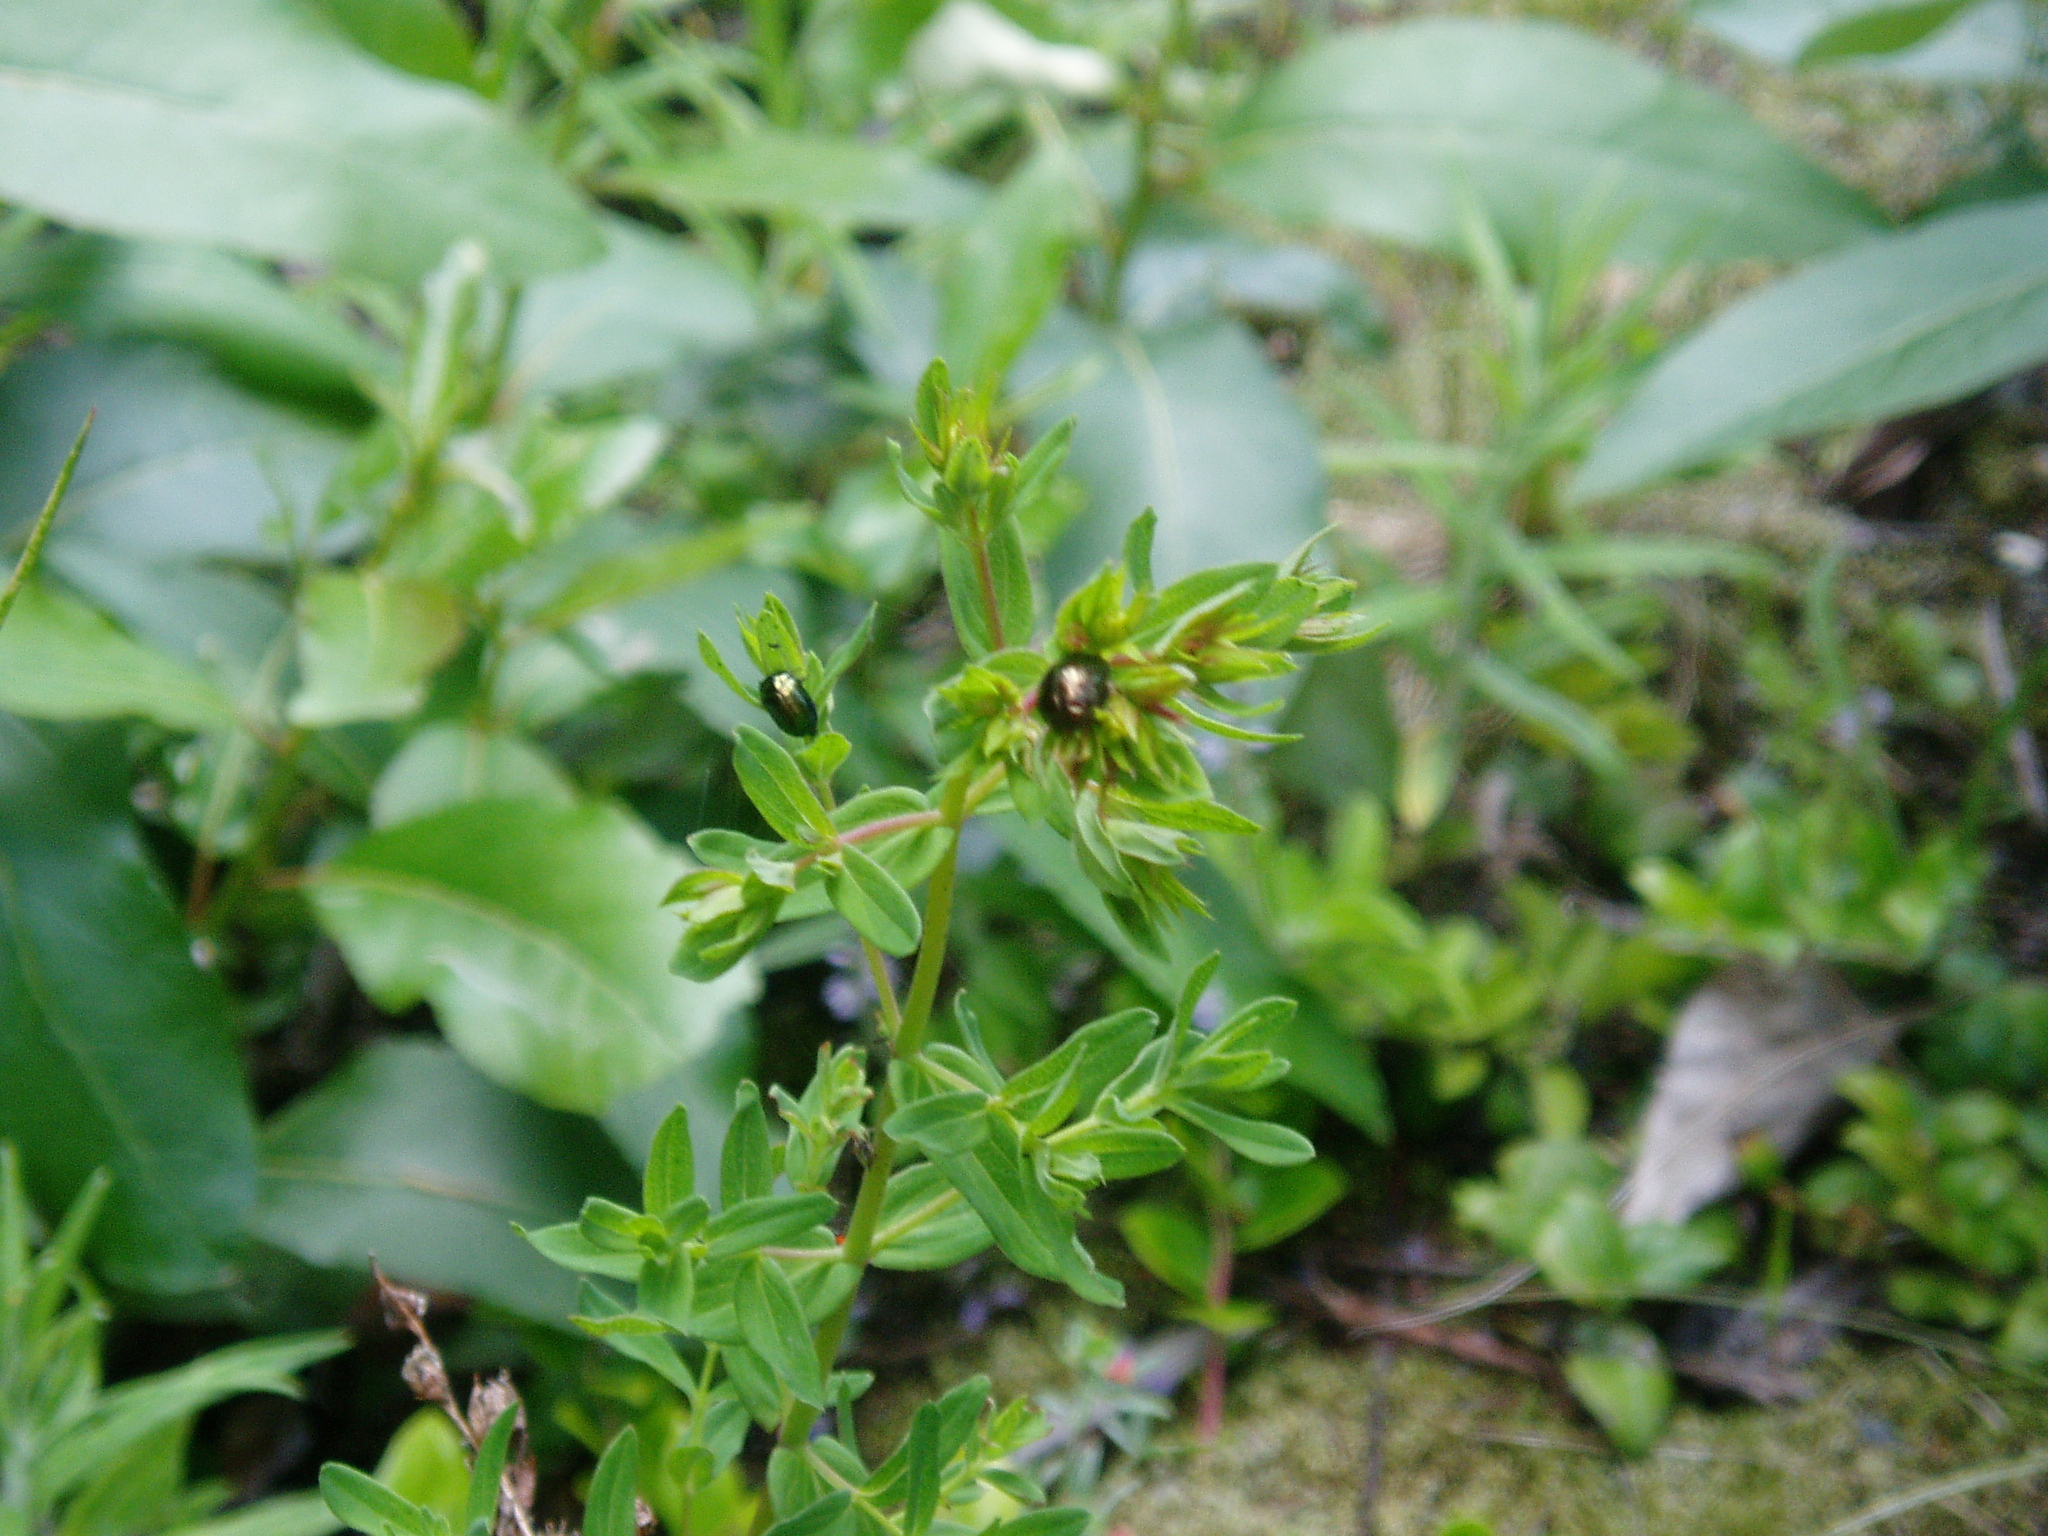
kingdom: Animalia
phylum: Arthropoda
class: Insecta
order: Coleoptera
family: Chrysomelidae
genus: Chrysolina
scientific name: Chrysolina hyperici
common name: St. johnswort beetle
